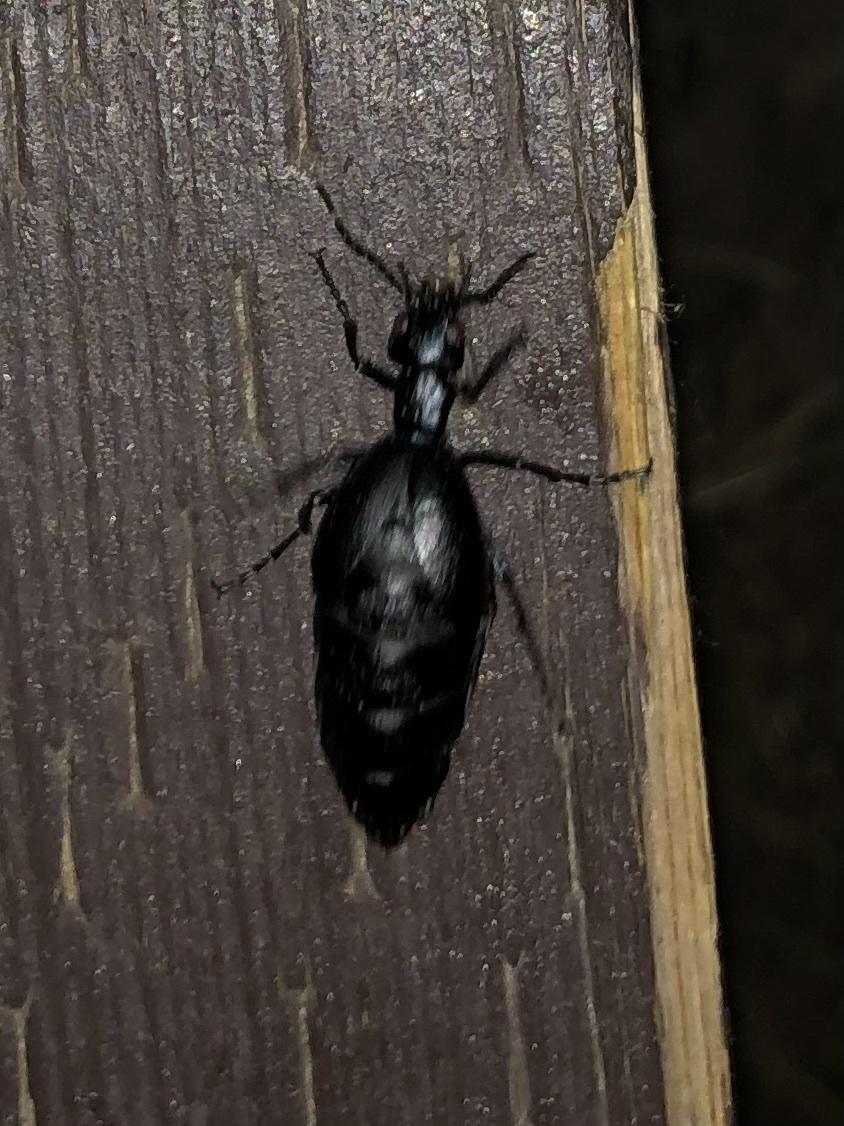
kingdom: Animalia
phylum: Arthropoda
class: Insecta
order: Coleoptera
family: Meloidae
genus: Meloe
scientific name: Meloe americanus
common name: Buttercup oil beetle
